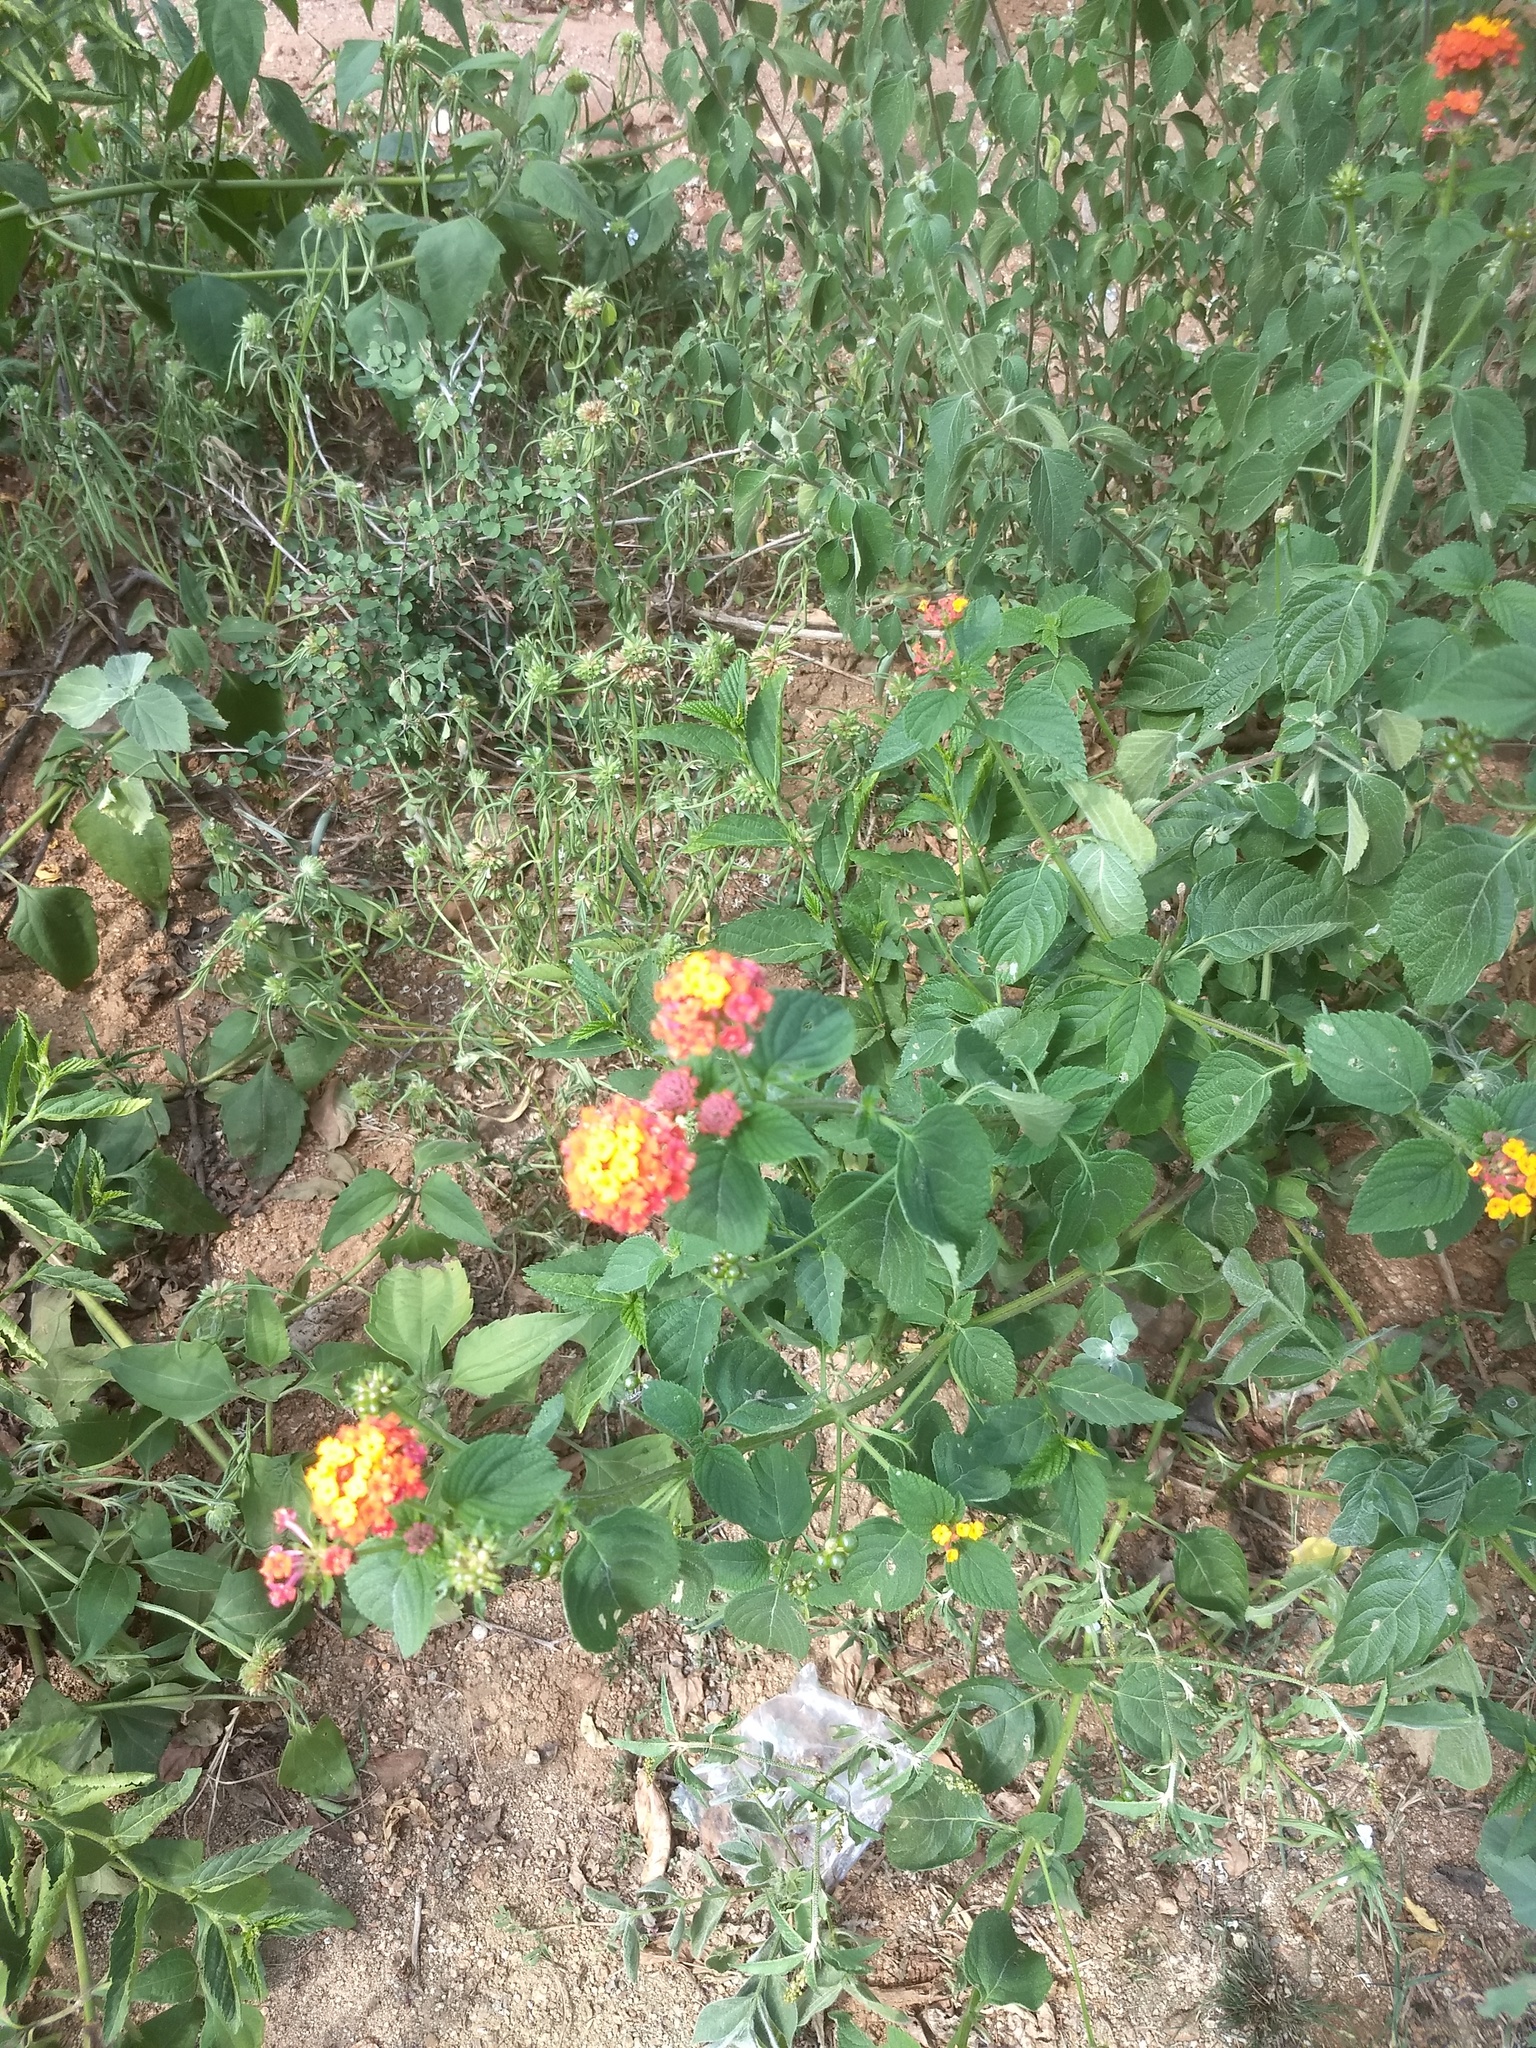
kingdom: Plantae
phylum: Tracheophyta
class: Magnoliopsida
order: Lamiales
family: Verbenaceae
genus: Lantana
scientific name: Lantana camara
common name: Lantana
